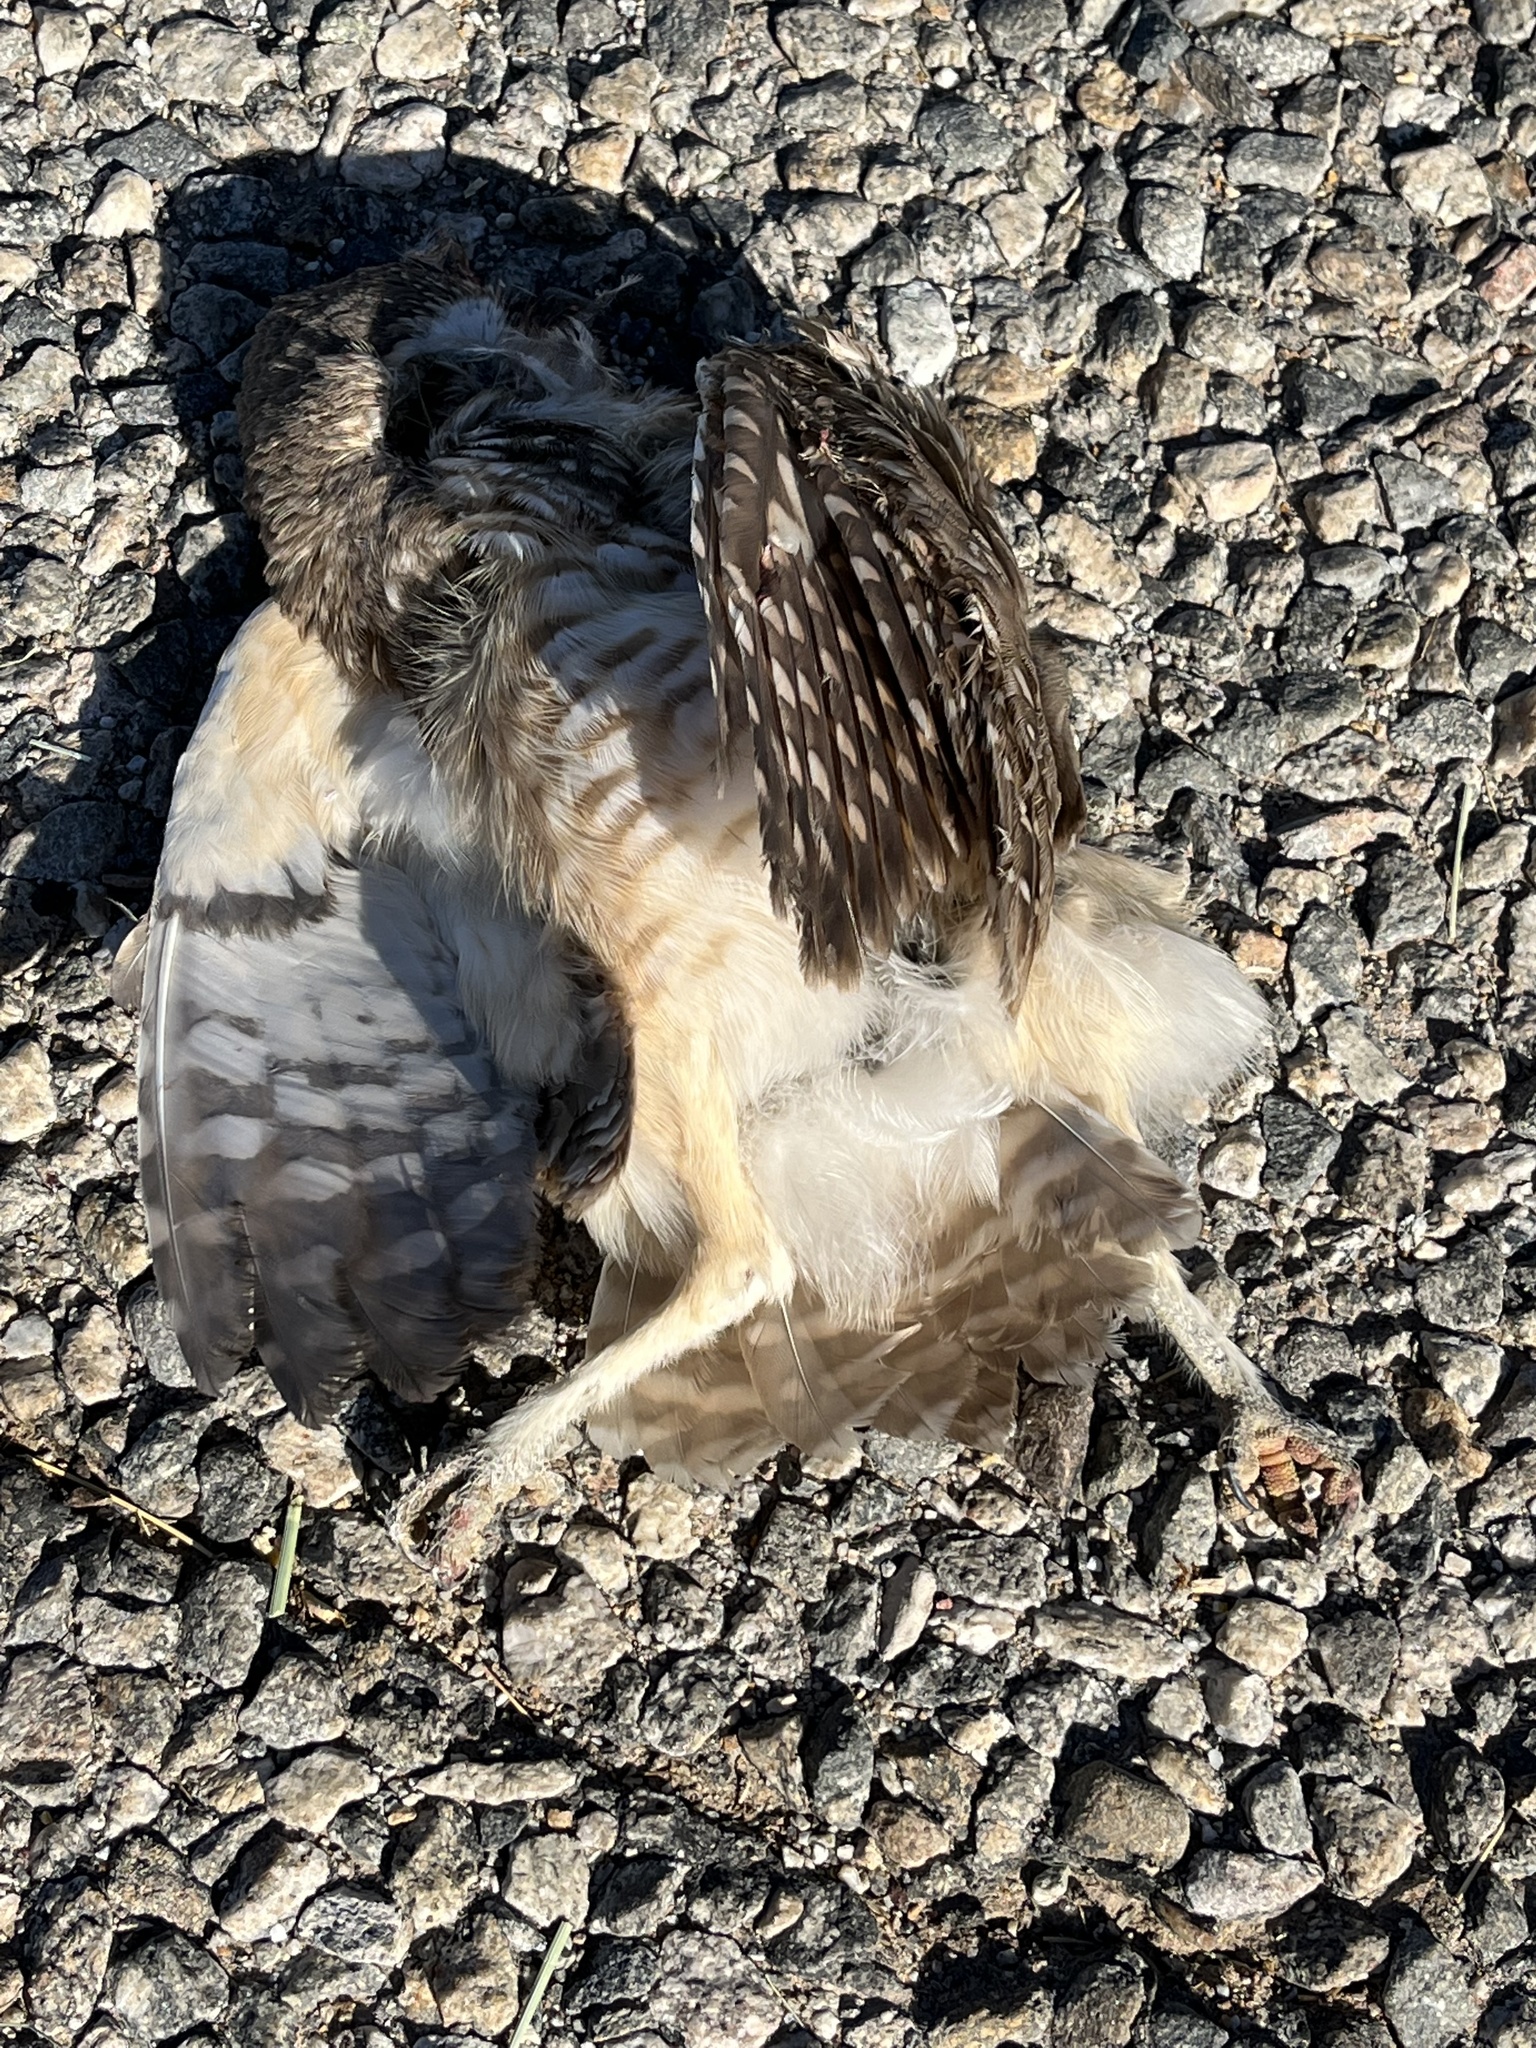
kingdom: Animalia
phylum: Chordata
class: Aves
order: Strigiformes
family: Strigidae
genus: Athene
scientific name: Athene cunicularia
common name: Burrowing owl
